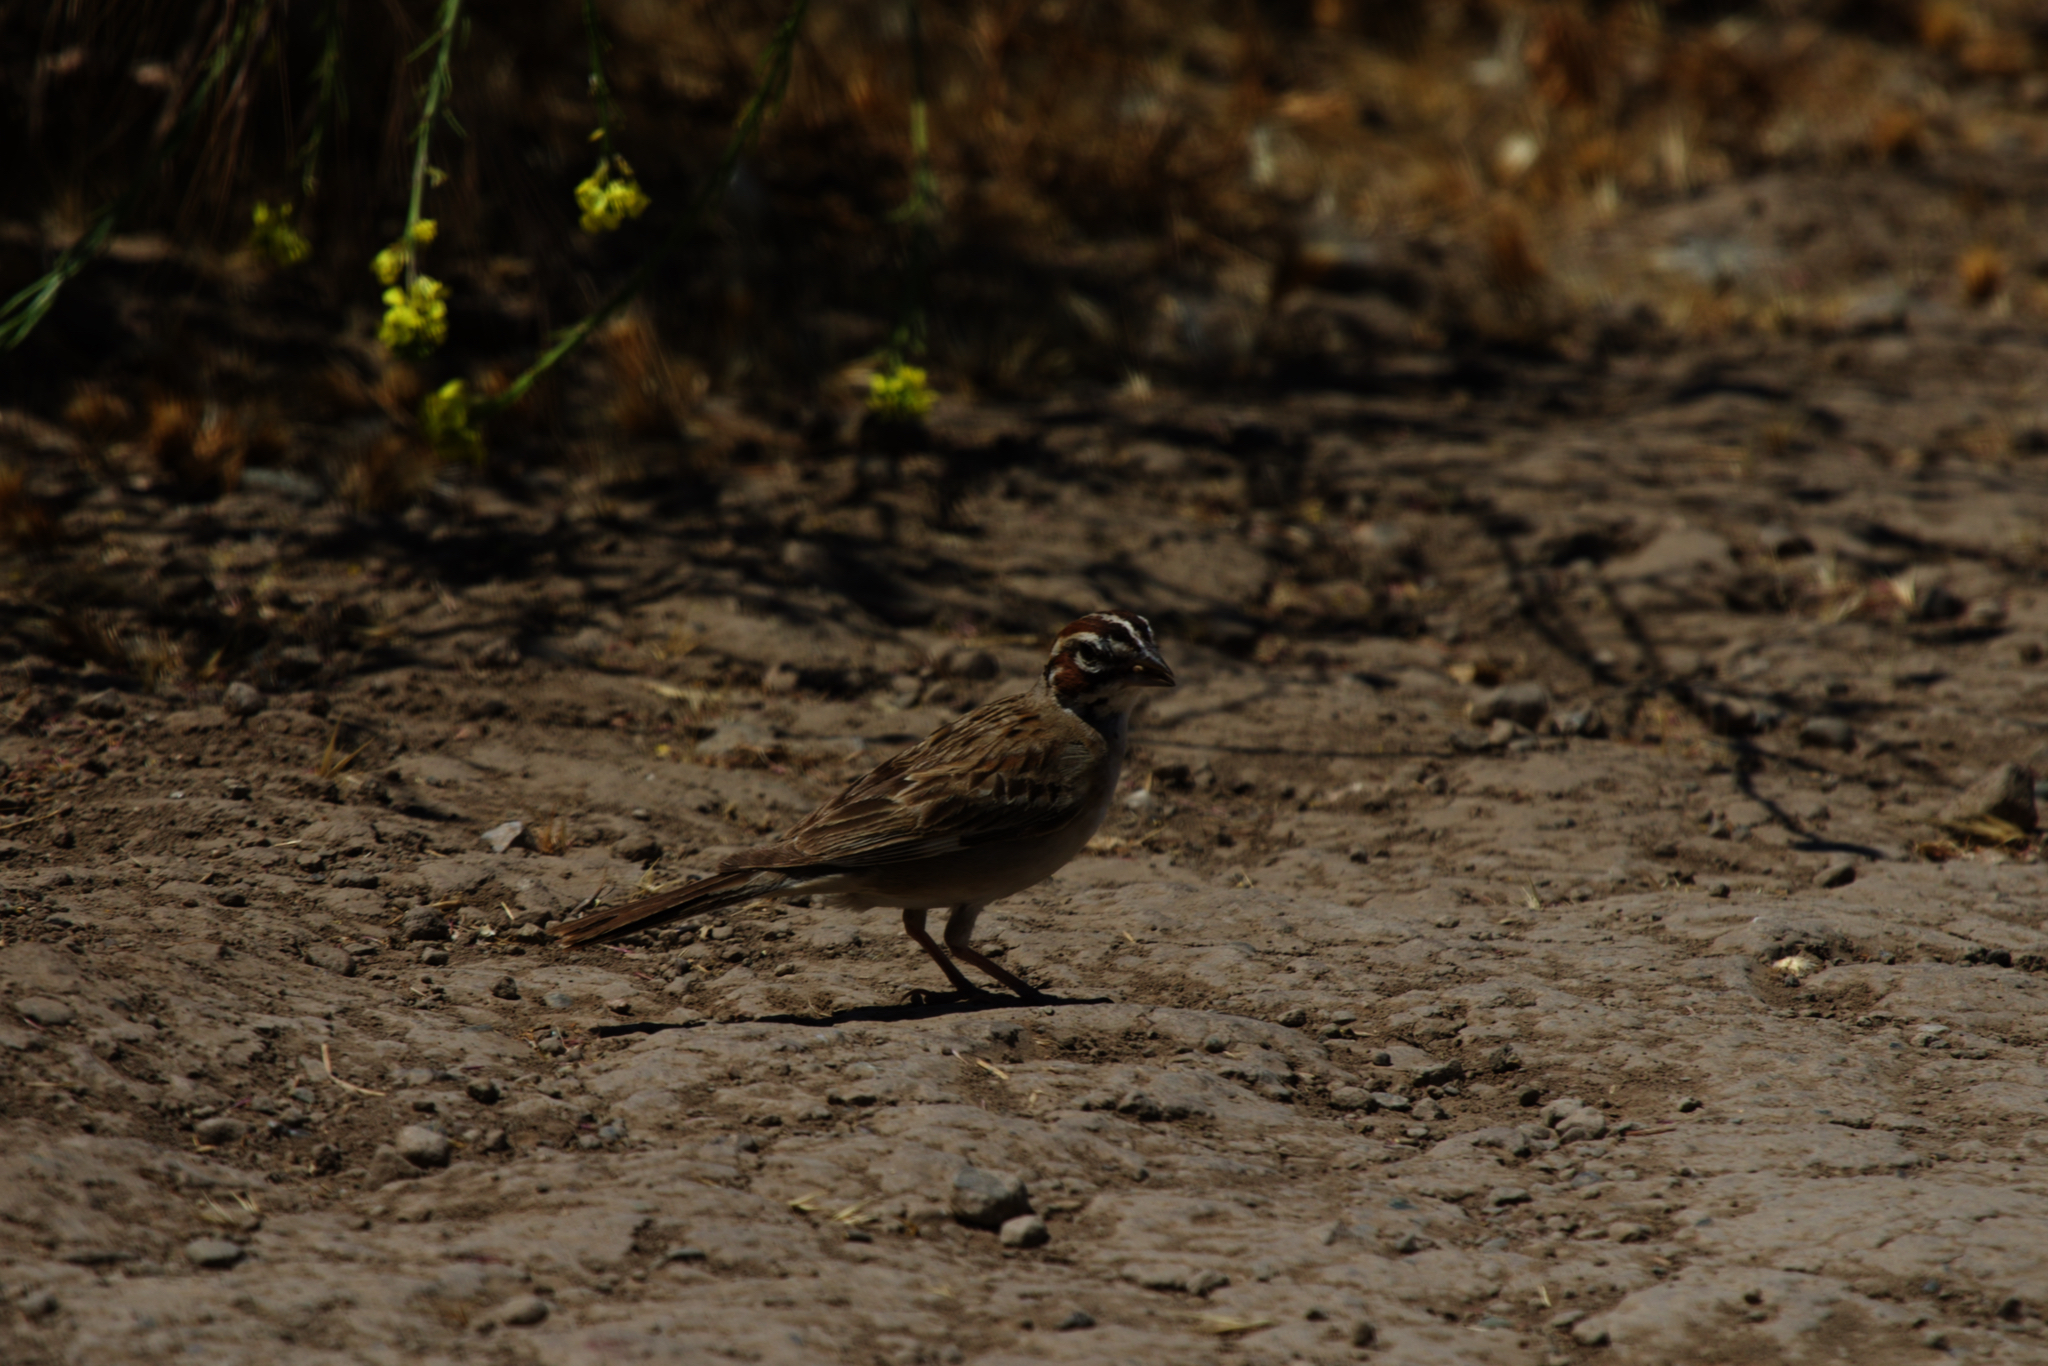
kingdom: Animalia
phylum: Chordata
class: Aves
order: Passeriformes
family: Passerellidae
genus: Chondestes
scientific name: Chondestes grammacus
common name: Lark sparrow
